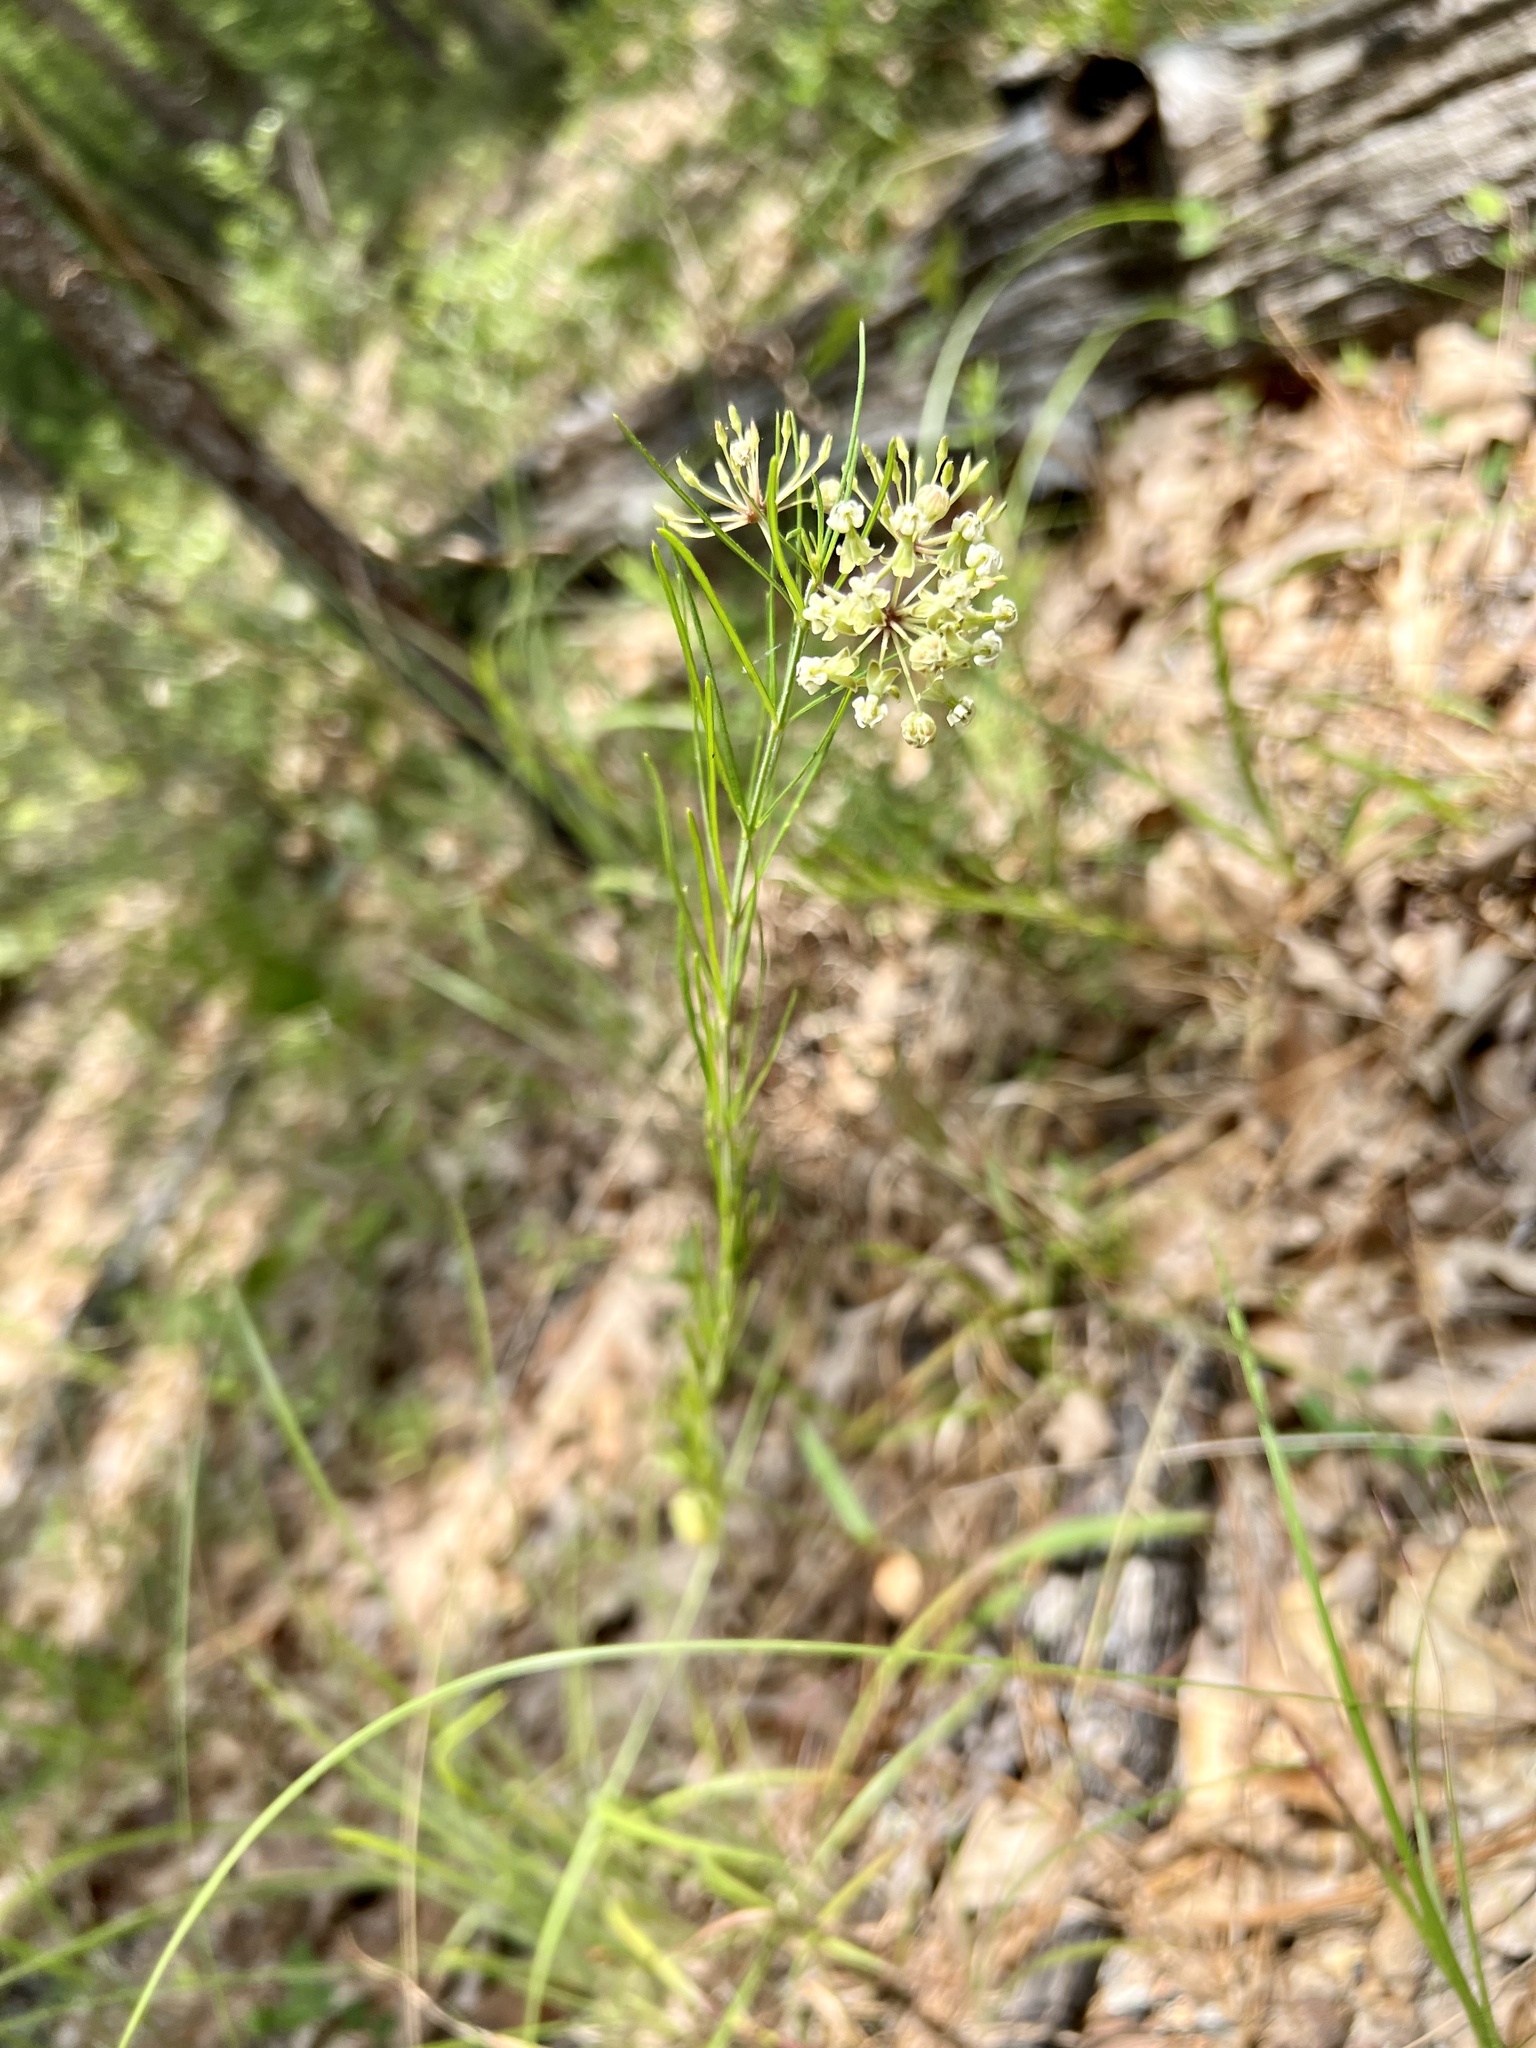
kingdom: Plantae
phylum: Tracheophyta
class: Magnoliopsida
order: Gentianales
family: Apocynaceae
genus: Asclepias
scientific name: Asclepias verticillata
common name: Eastern whorled milkweed
